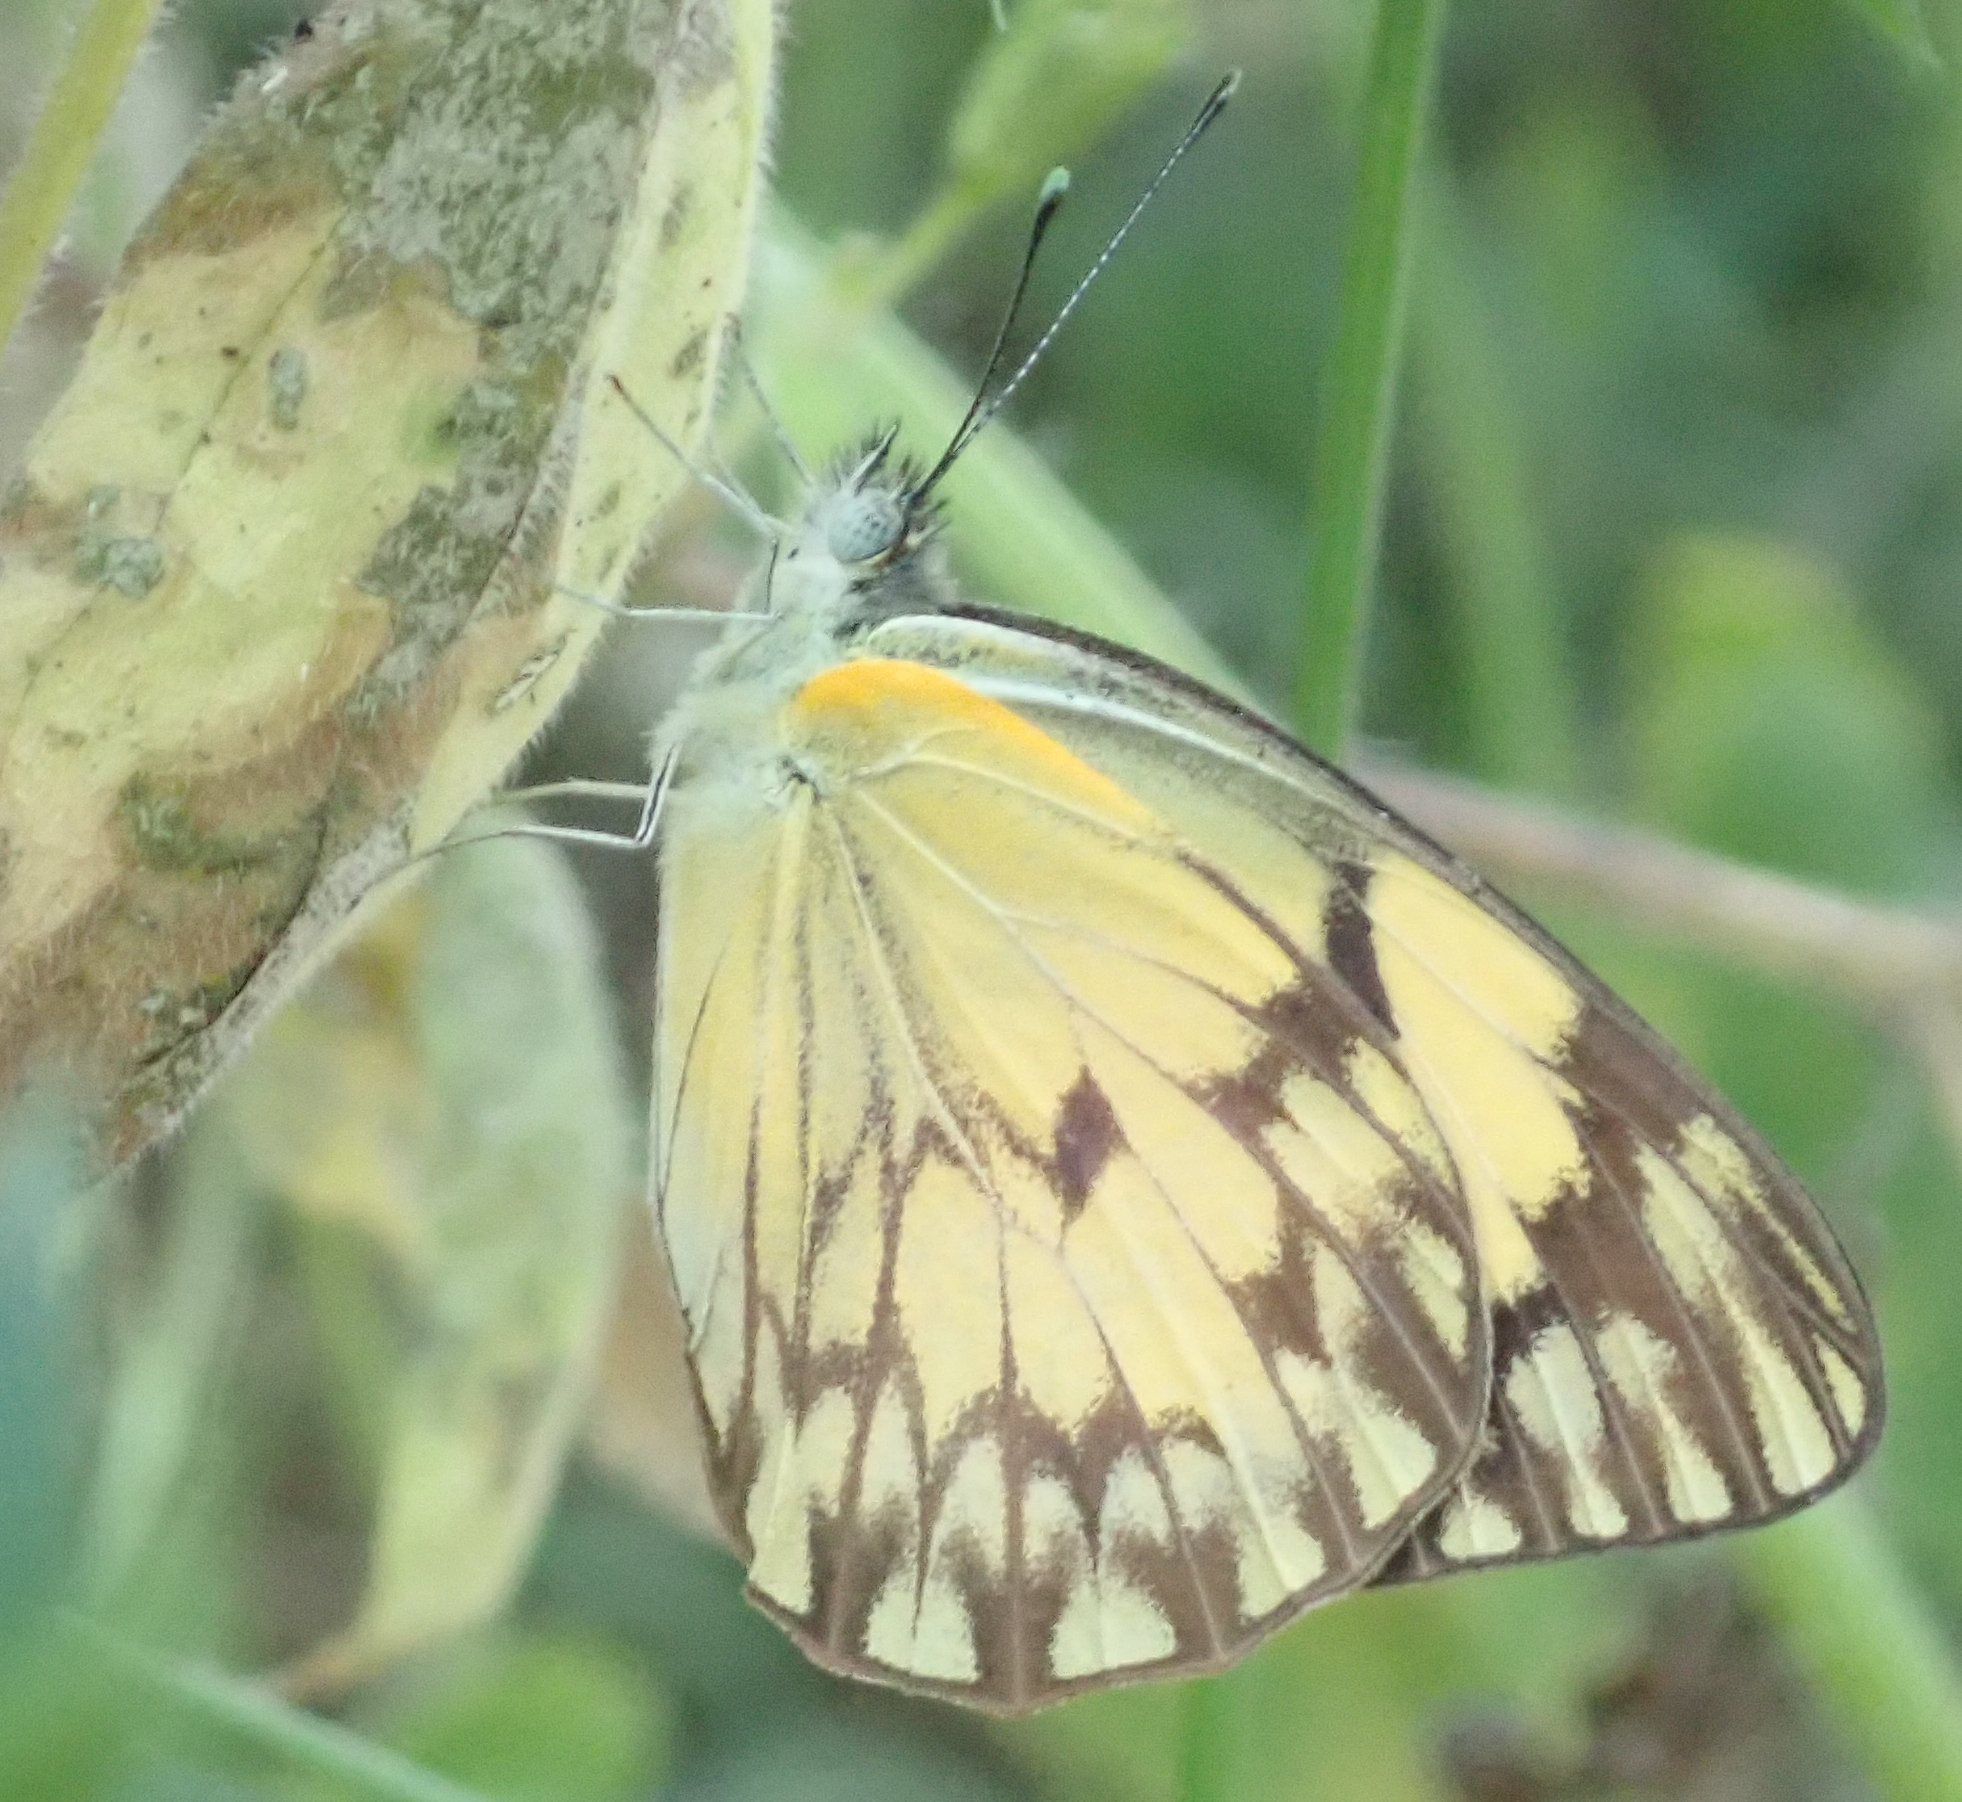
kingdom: Animalia
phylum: Arthropoda
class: Insecta
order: Lepidoptera
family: Pieridae
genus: Belenois
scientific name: Belenois gidica
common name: Pointed caper white
